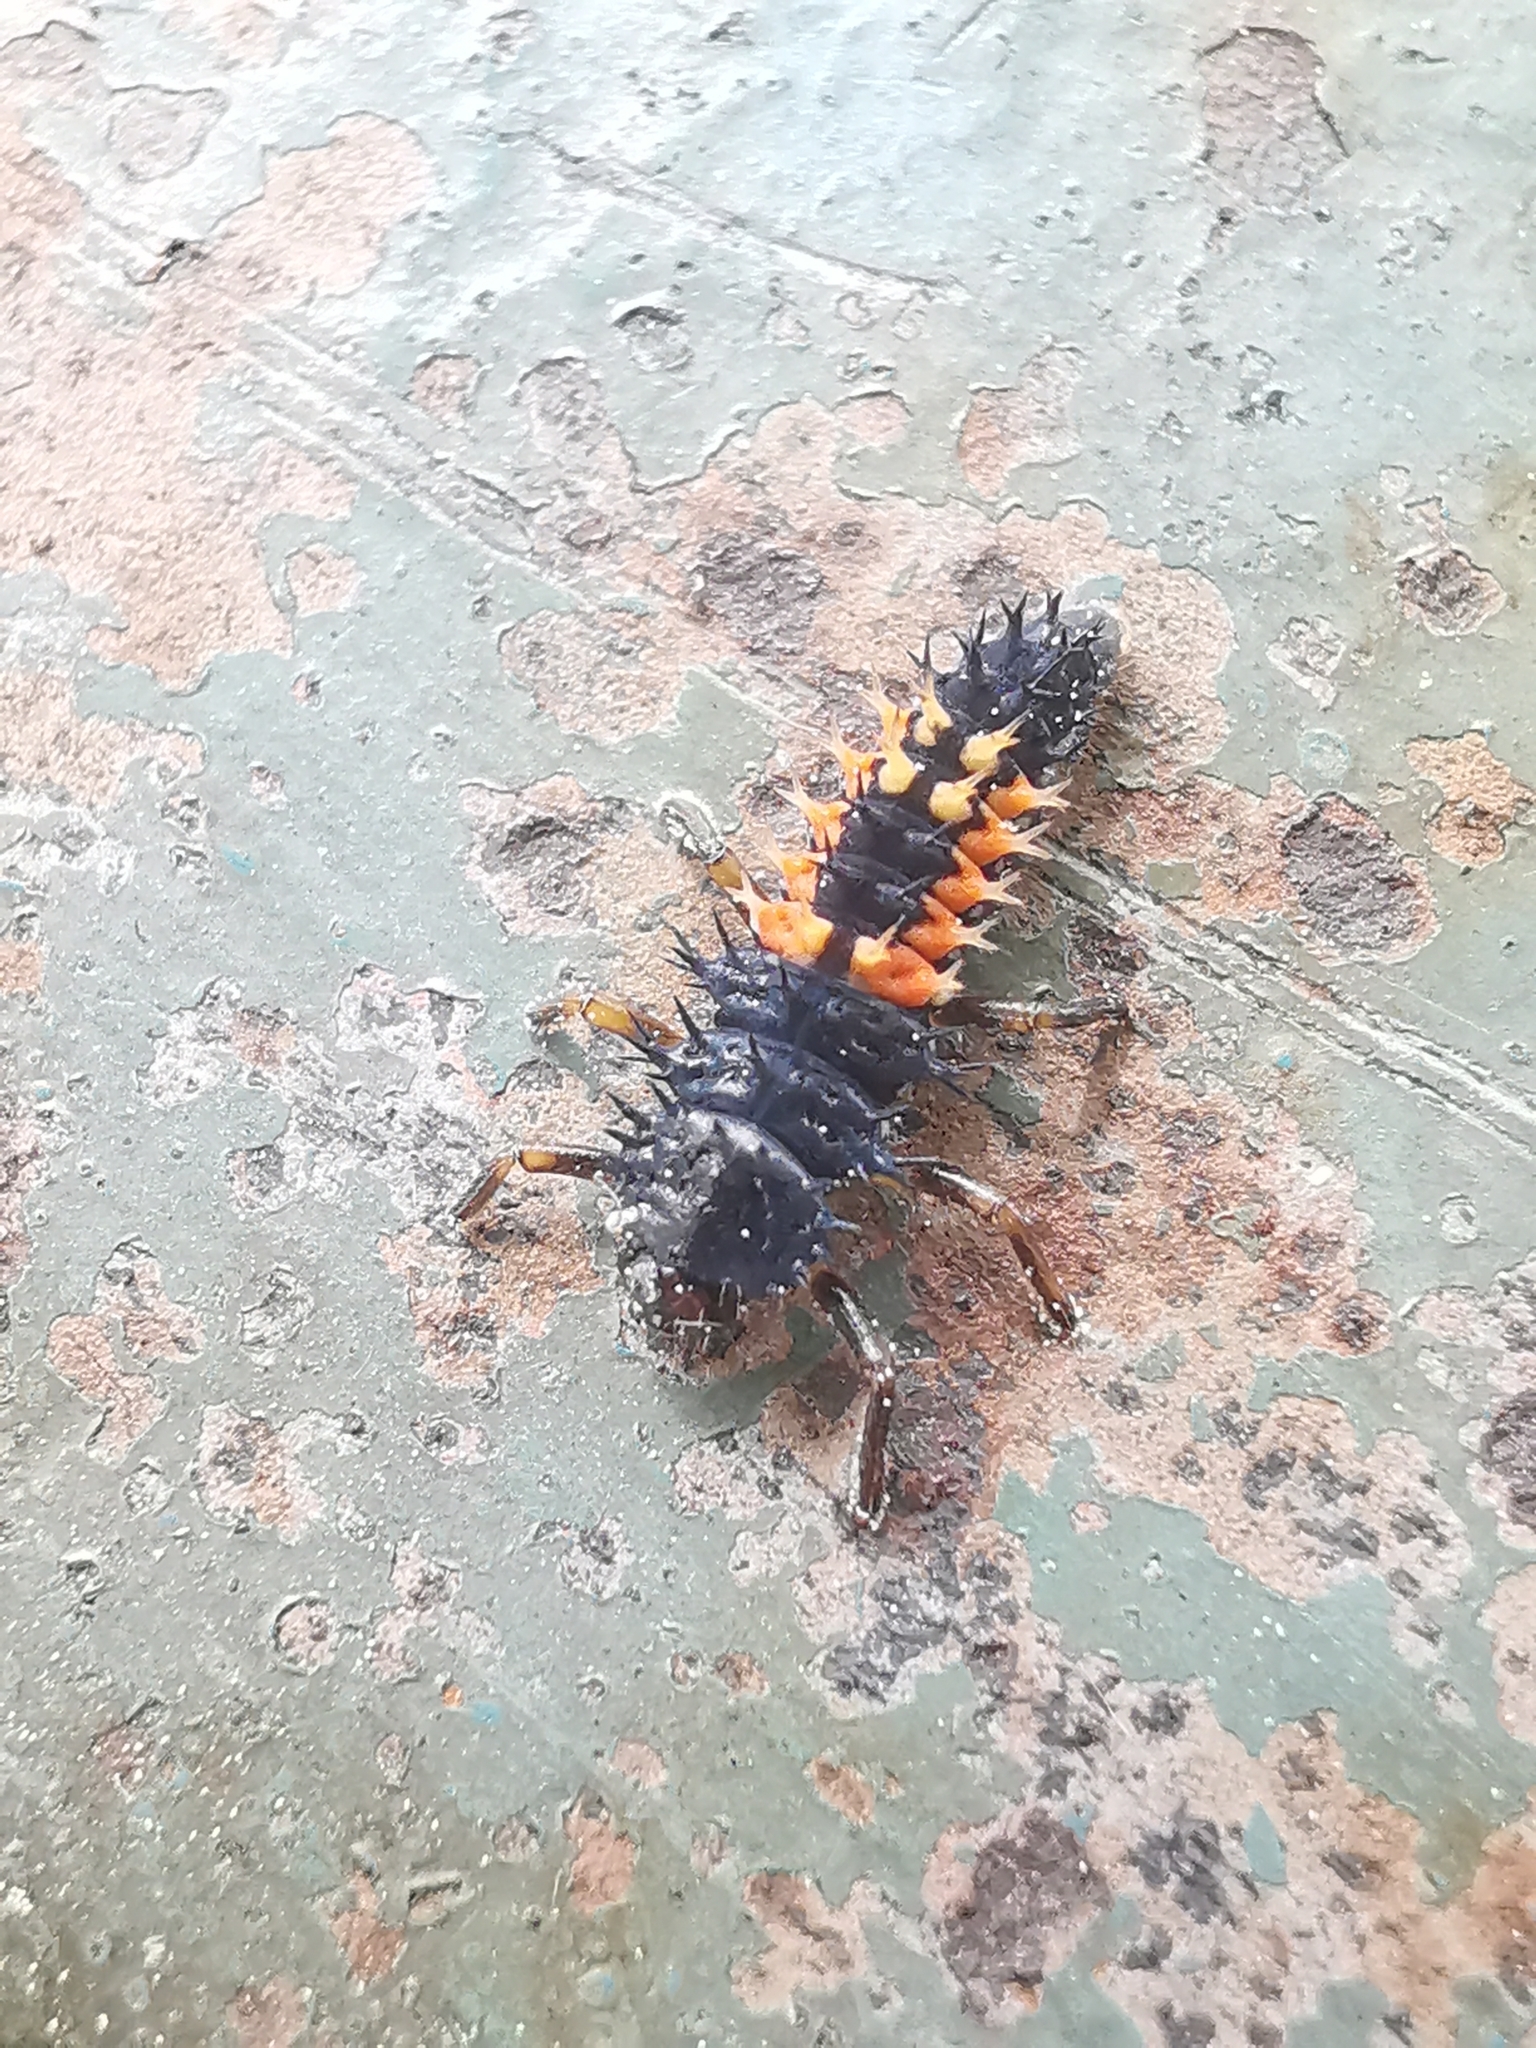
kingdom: Animalia
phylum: Arthropoda
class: Insecta
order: Coleoptera
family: Coccinellidae
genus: Harmonia
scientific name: Harmonia axyridis
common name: Harlequin ladybird
